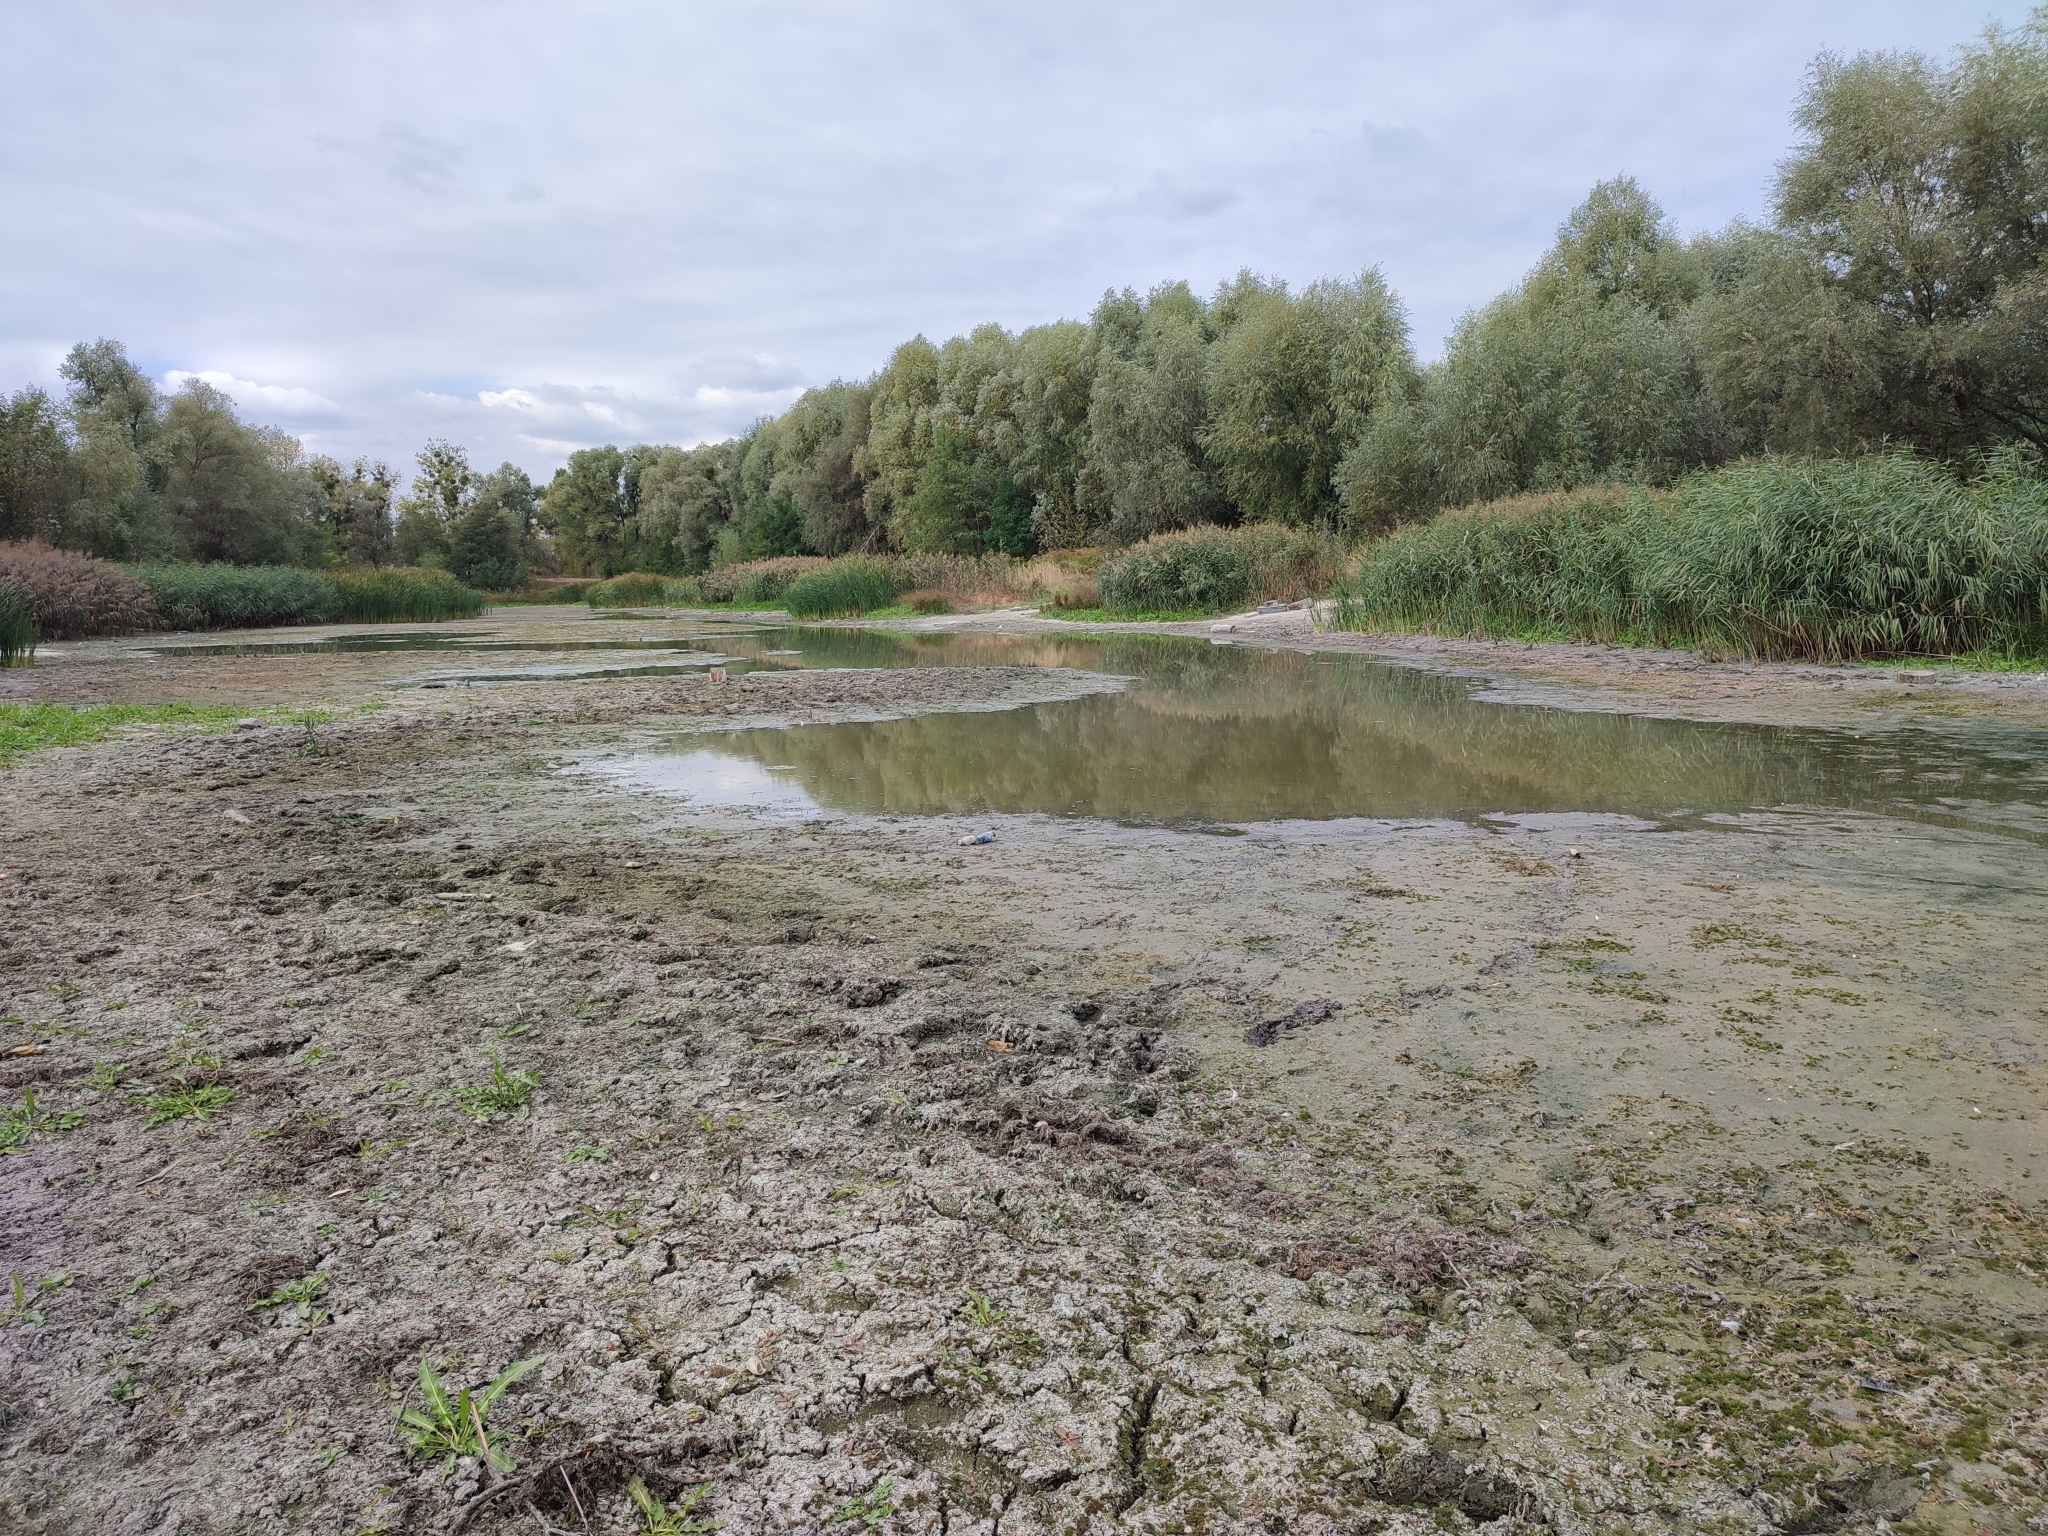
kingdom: Plantae
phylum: Tracheophyta
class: Liliopsida
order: Poales
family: Poaceae
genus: Phragmites
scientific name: Phragmites australis
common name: Common reed
